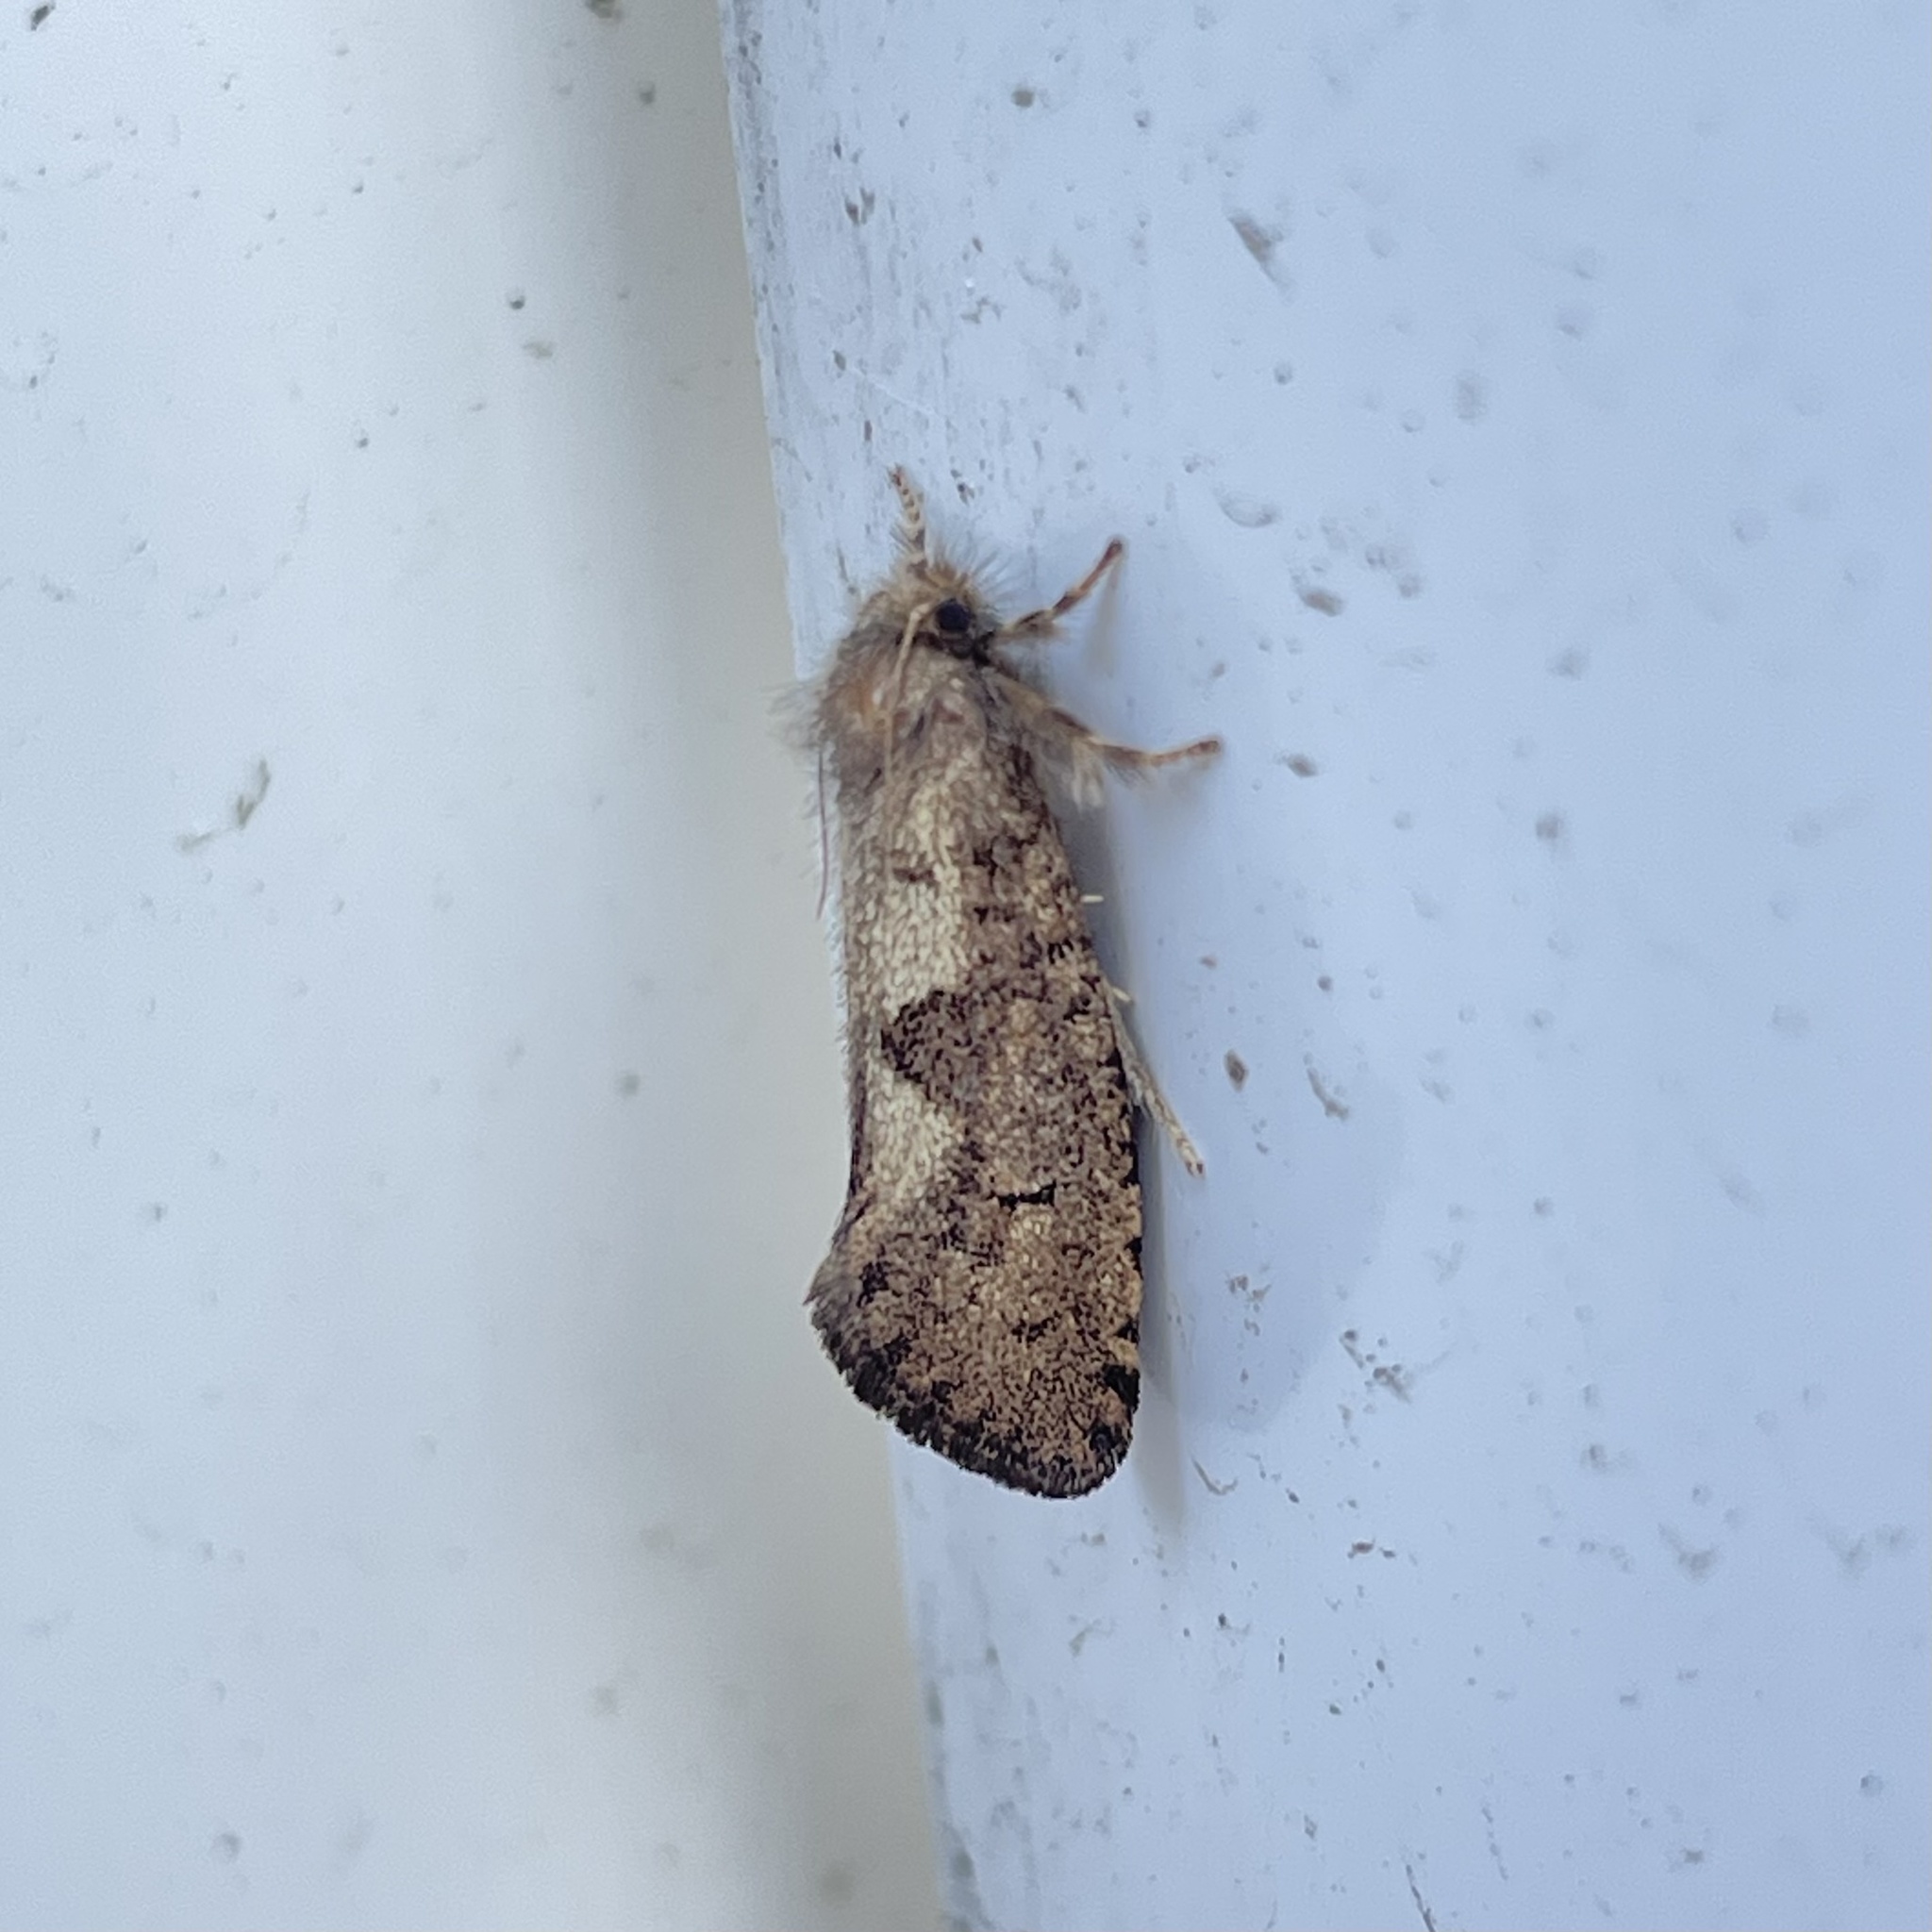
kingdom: Animalia
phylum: Arthropoda
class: Insecta
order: Lepidoptera
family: Tineidae
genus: Acrolophus
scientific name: Acrolophus mora
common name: Dark acrolophus
